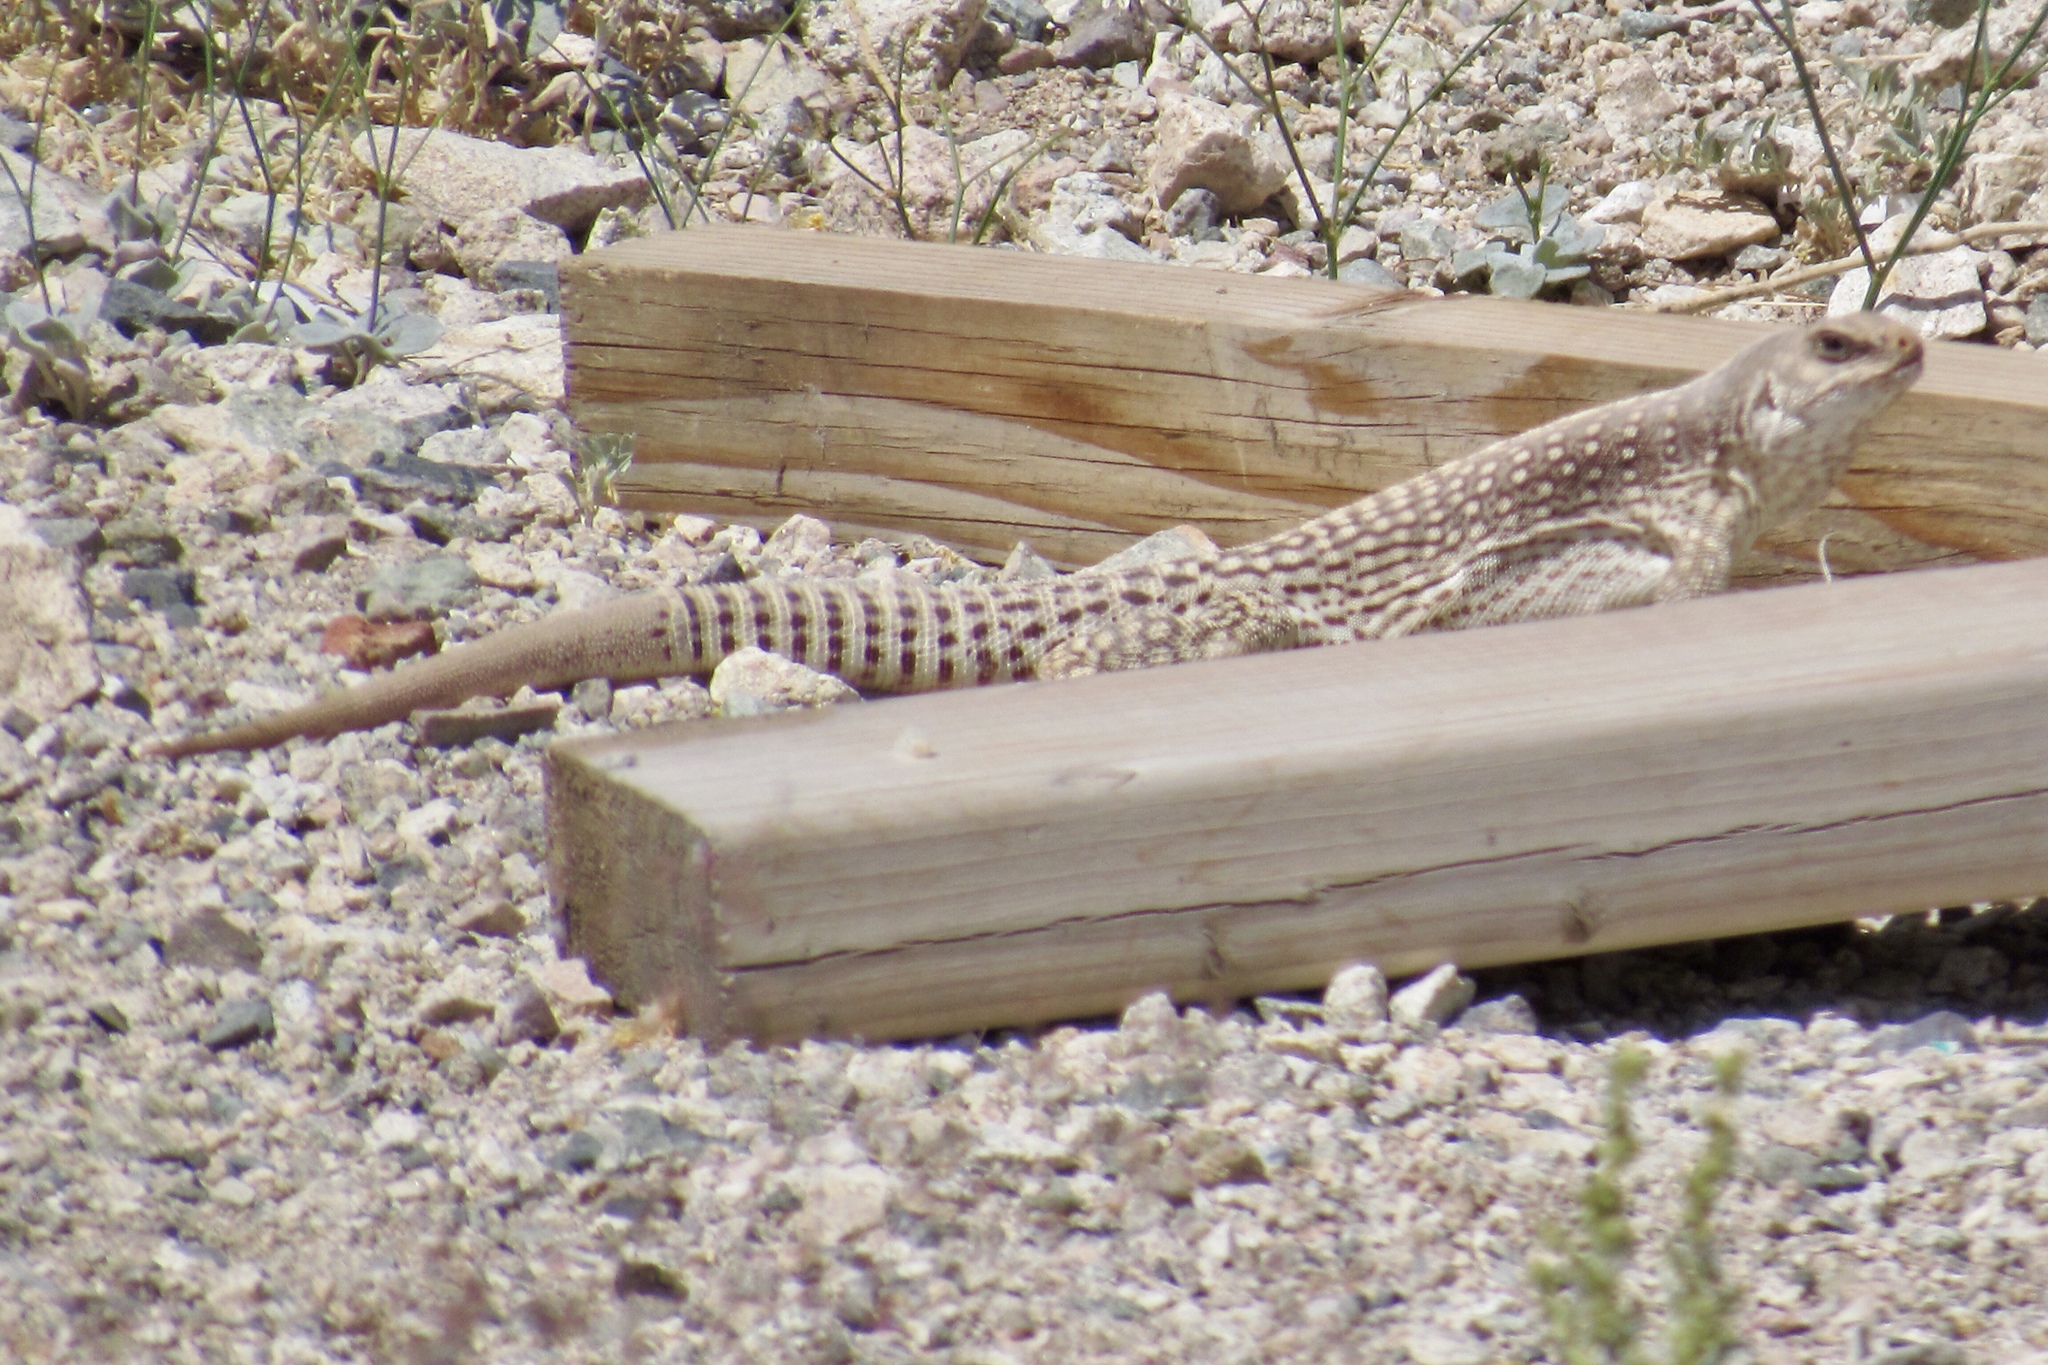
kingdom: Animalia
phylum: Chordata
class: Squamata
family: Iguanidae
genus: Dipsosaurus
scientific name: Dipsosaurus dorsalis
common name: Desert iguana
